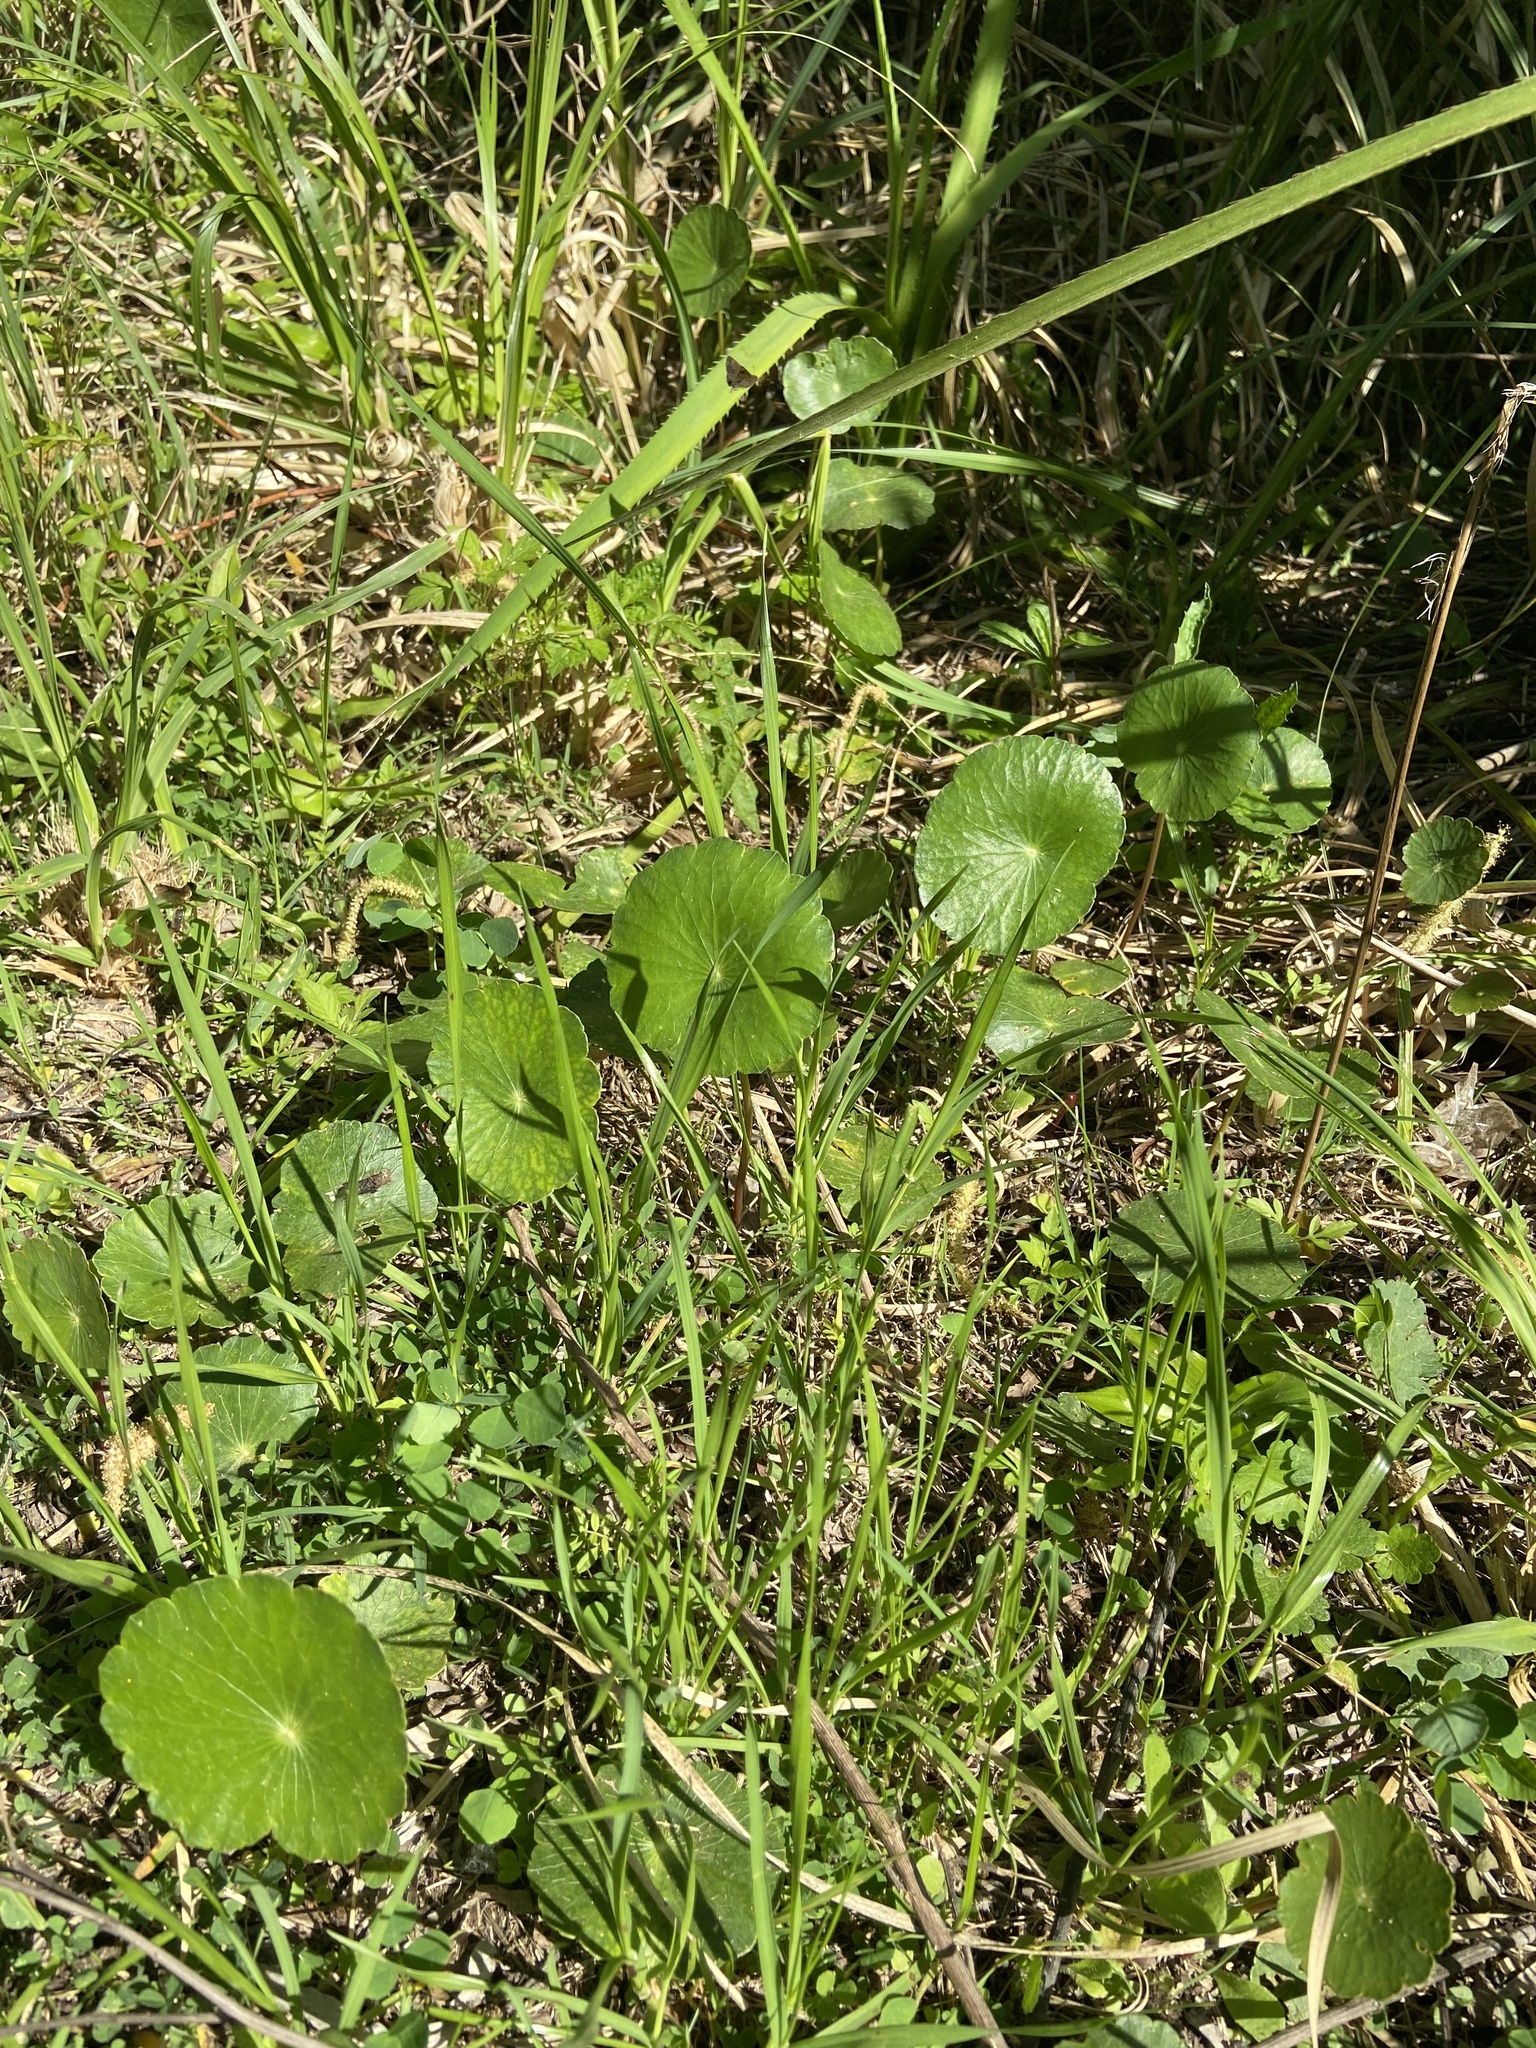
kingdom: Plantae
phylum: Tracheophyta
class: Magnoliopsida
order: Apiales
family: Araliaceae
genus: Hydrocotyle
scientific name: Hydrocotyle bonariensis
